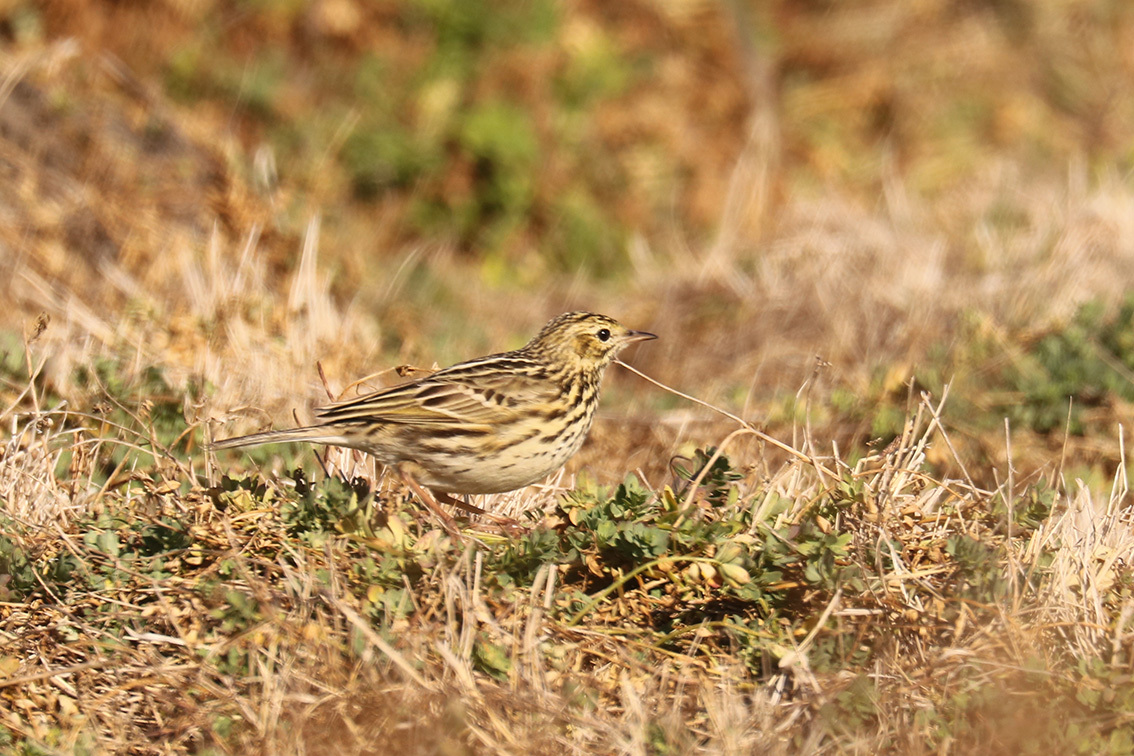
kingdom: Animalia
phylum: Chordata
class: Aves
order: Passeriformes
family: Motacillidae
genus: Anthus
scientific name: Anthus correndera
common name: Correndera pipit
